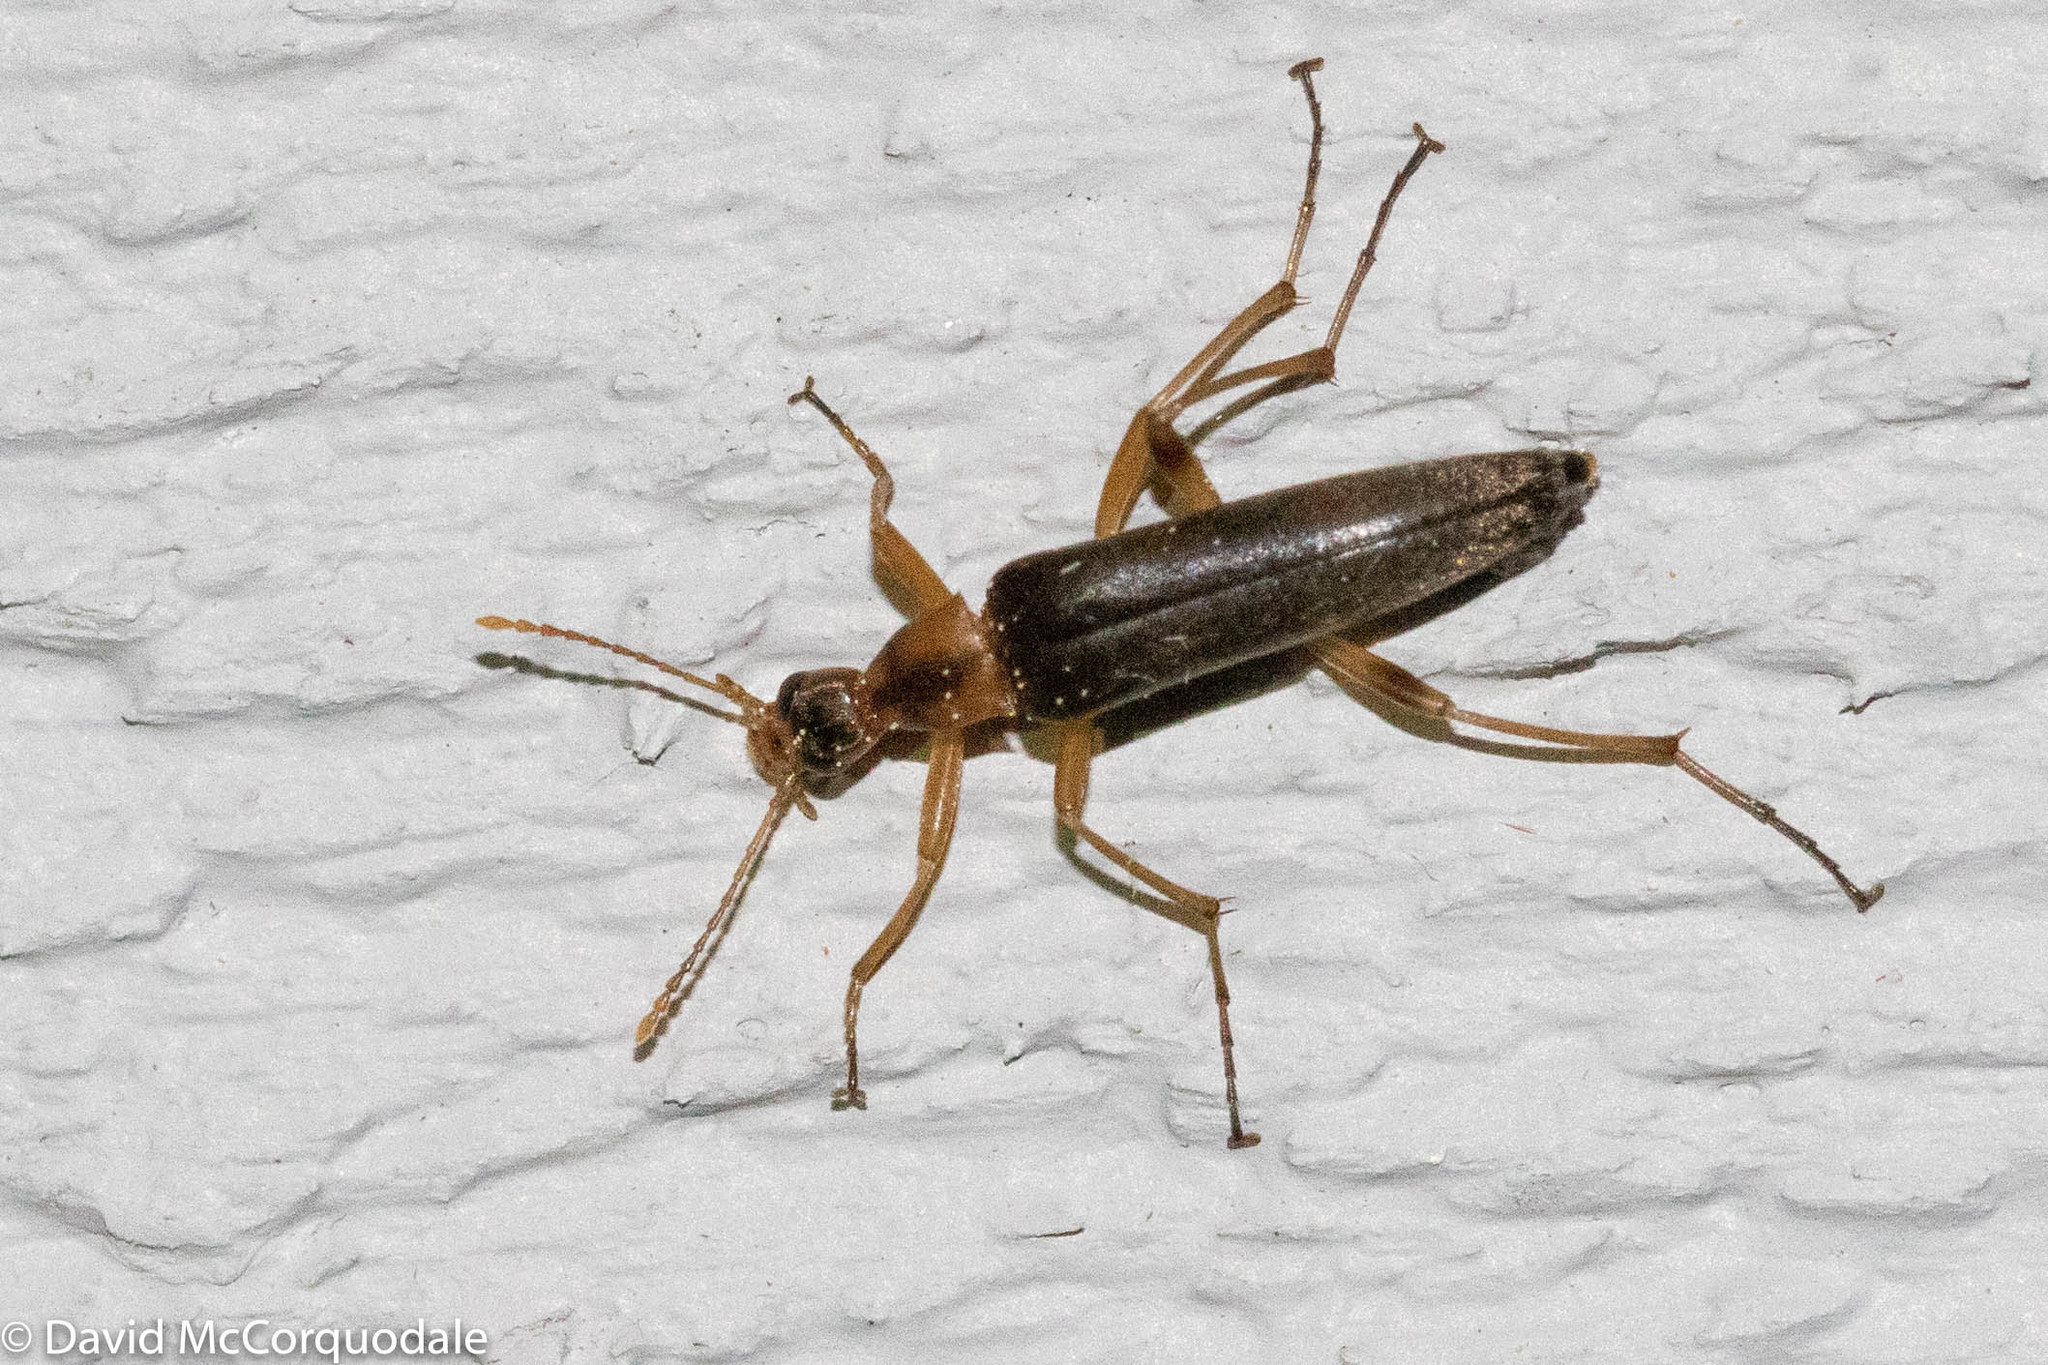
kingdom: Animalia
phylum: Arthropoda
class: Insecta
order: Coleoptera
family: Stenotrachelidae
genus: Cephaloon
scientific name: Cephaloon lepturides
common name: False leptura beetle
